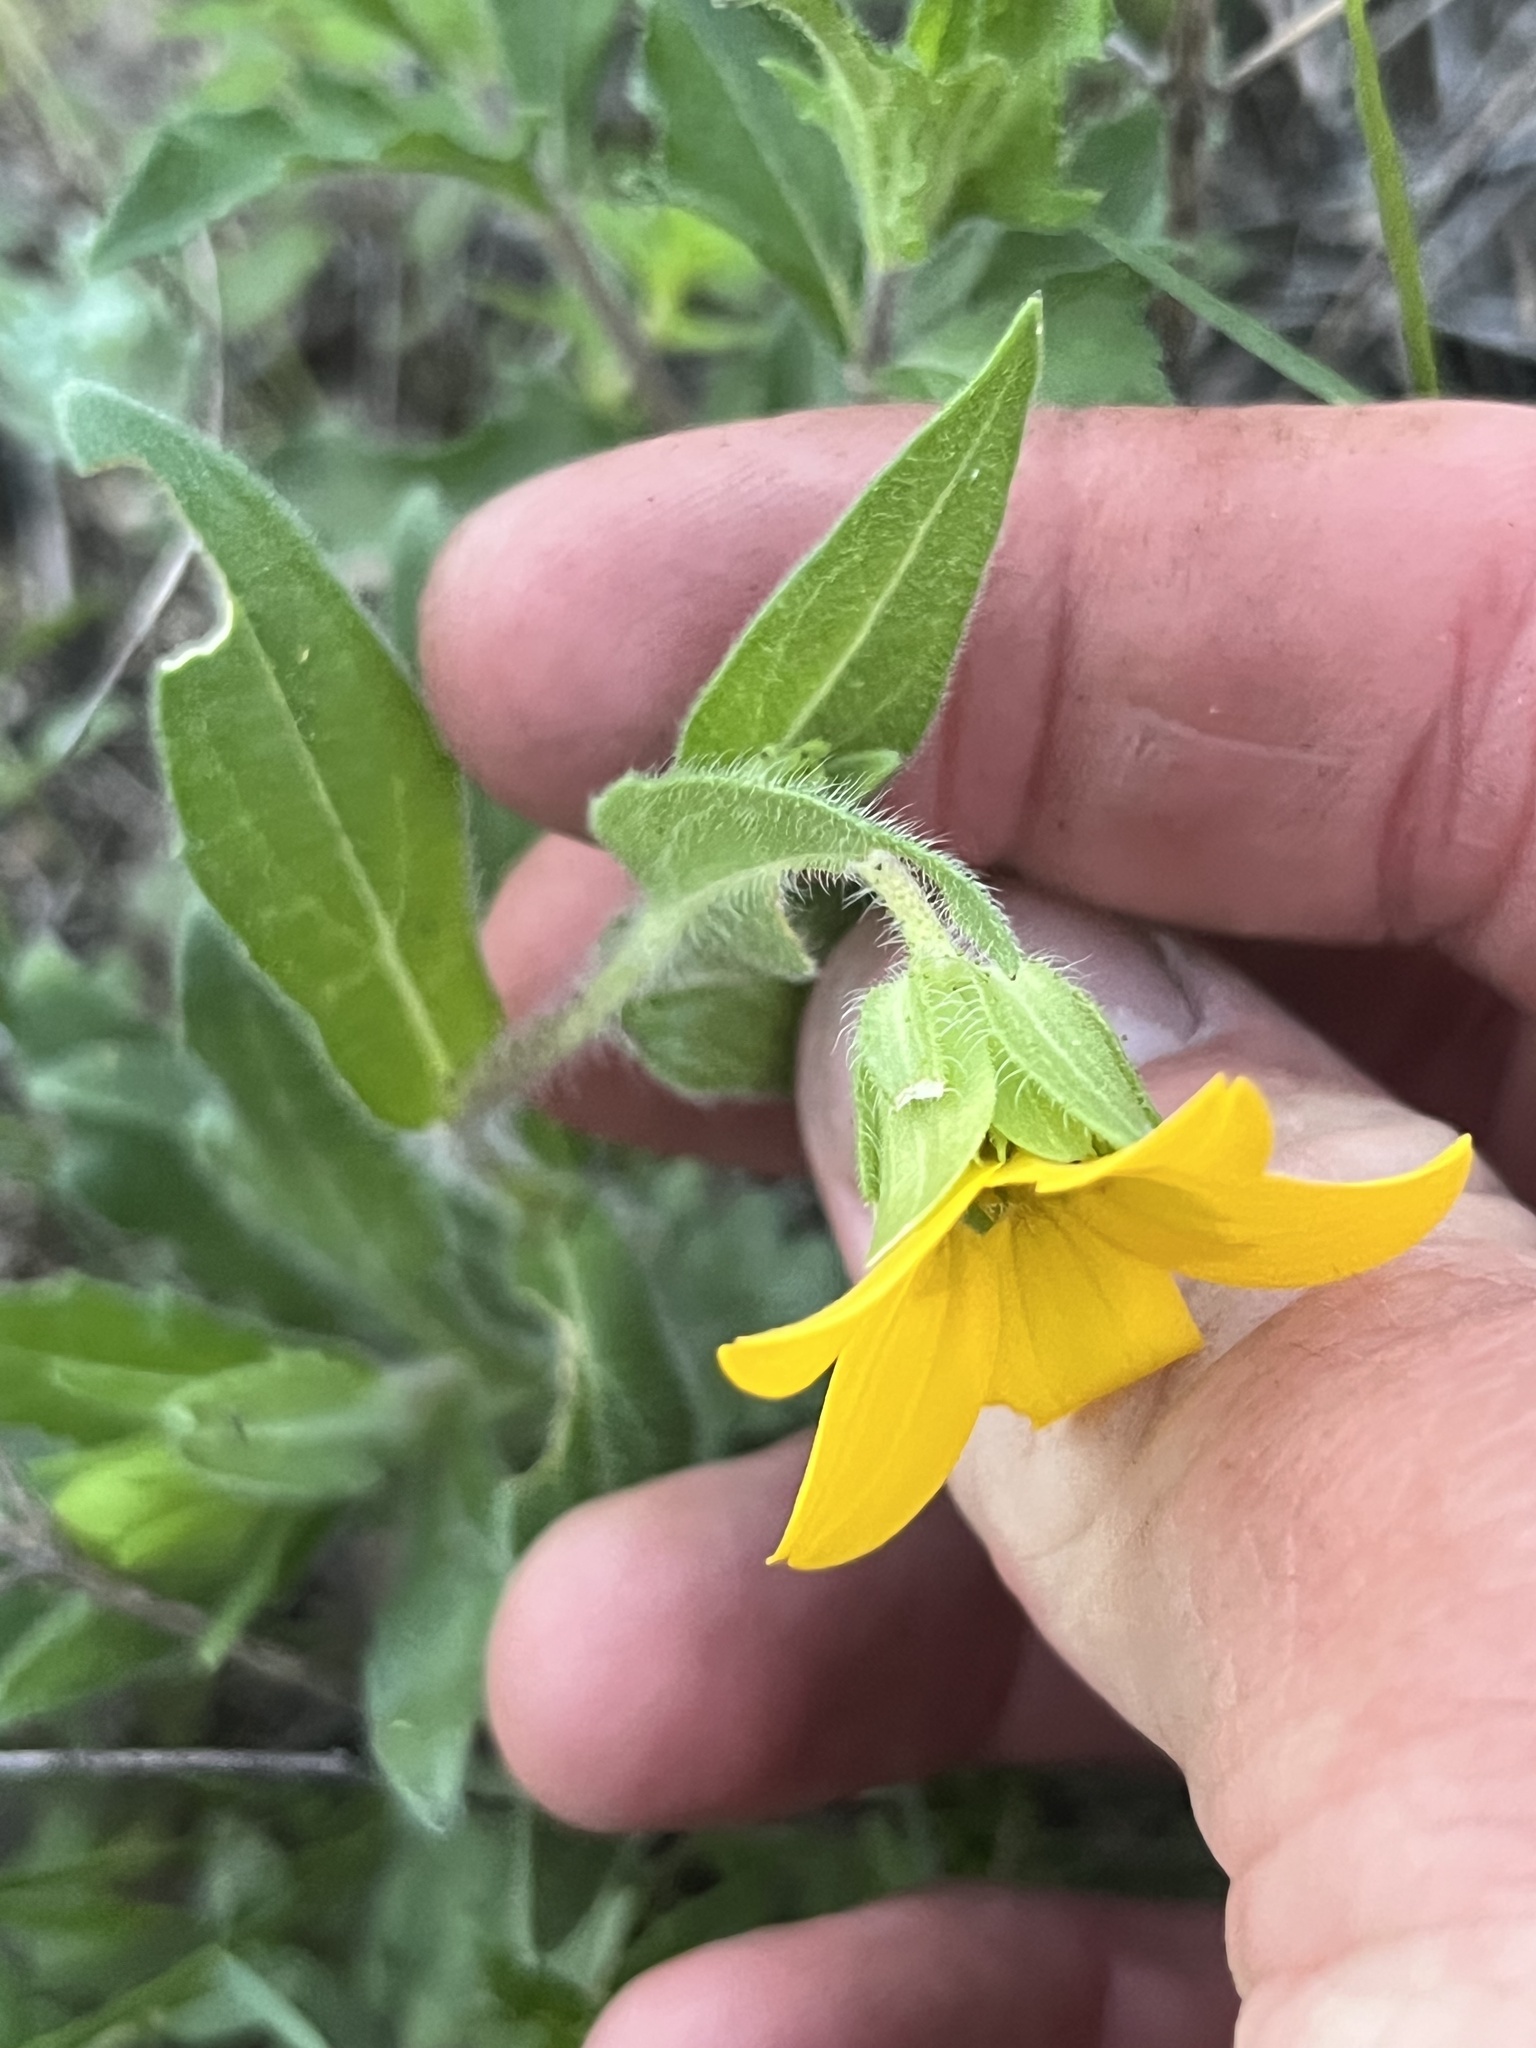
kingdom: Plantae
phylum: Tracheophyta
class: Magnoliopsida
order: Asterales
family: Asteraceae
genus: Lindheimera
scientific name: Lindheimera texana
